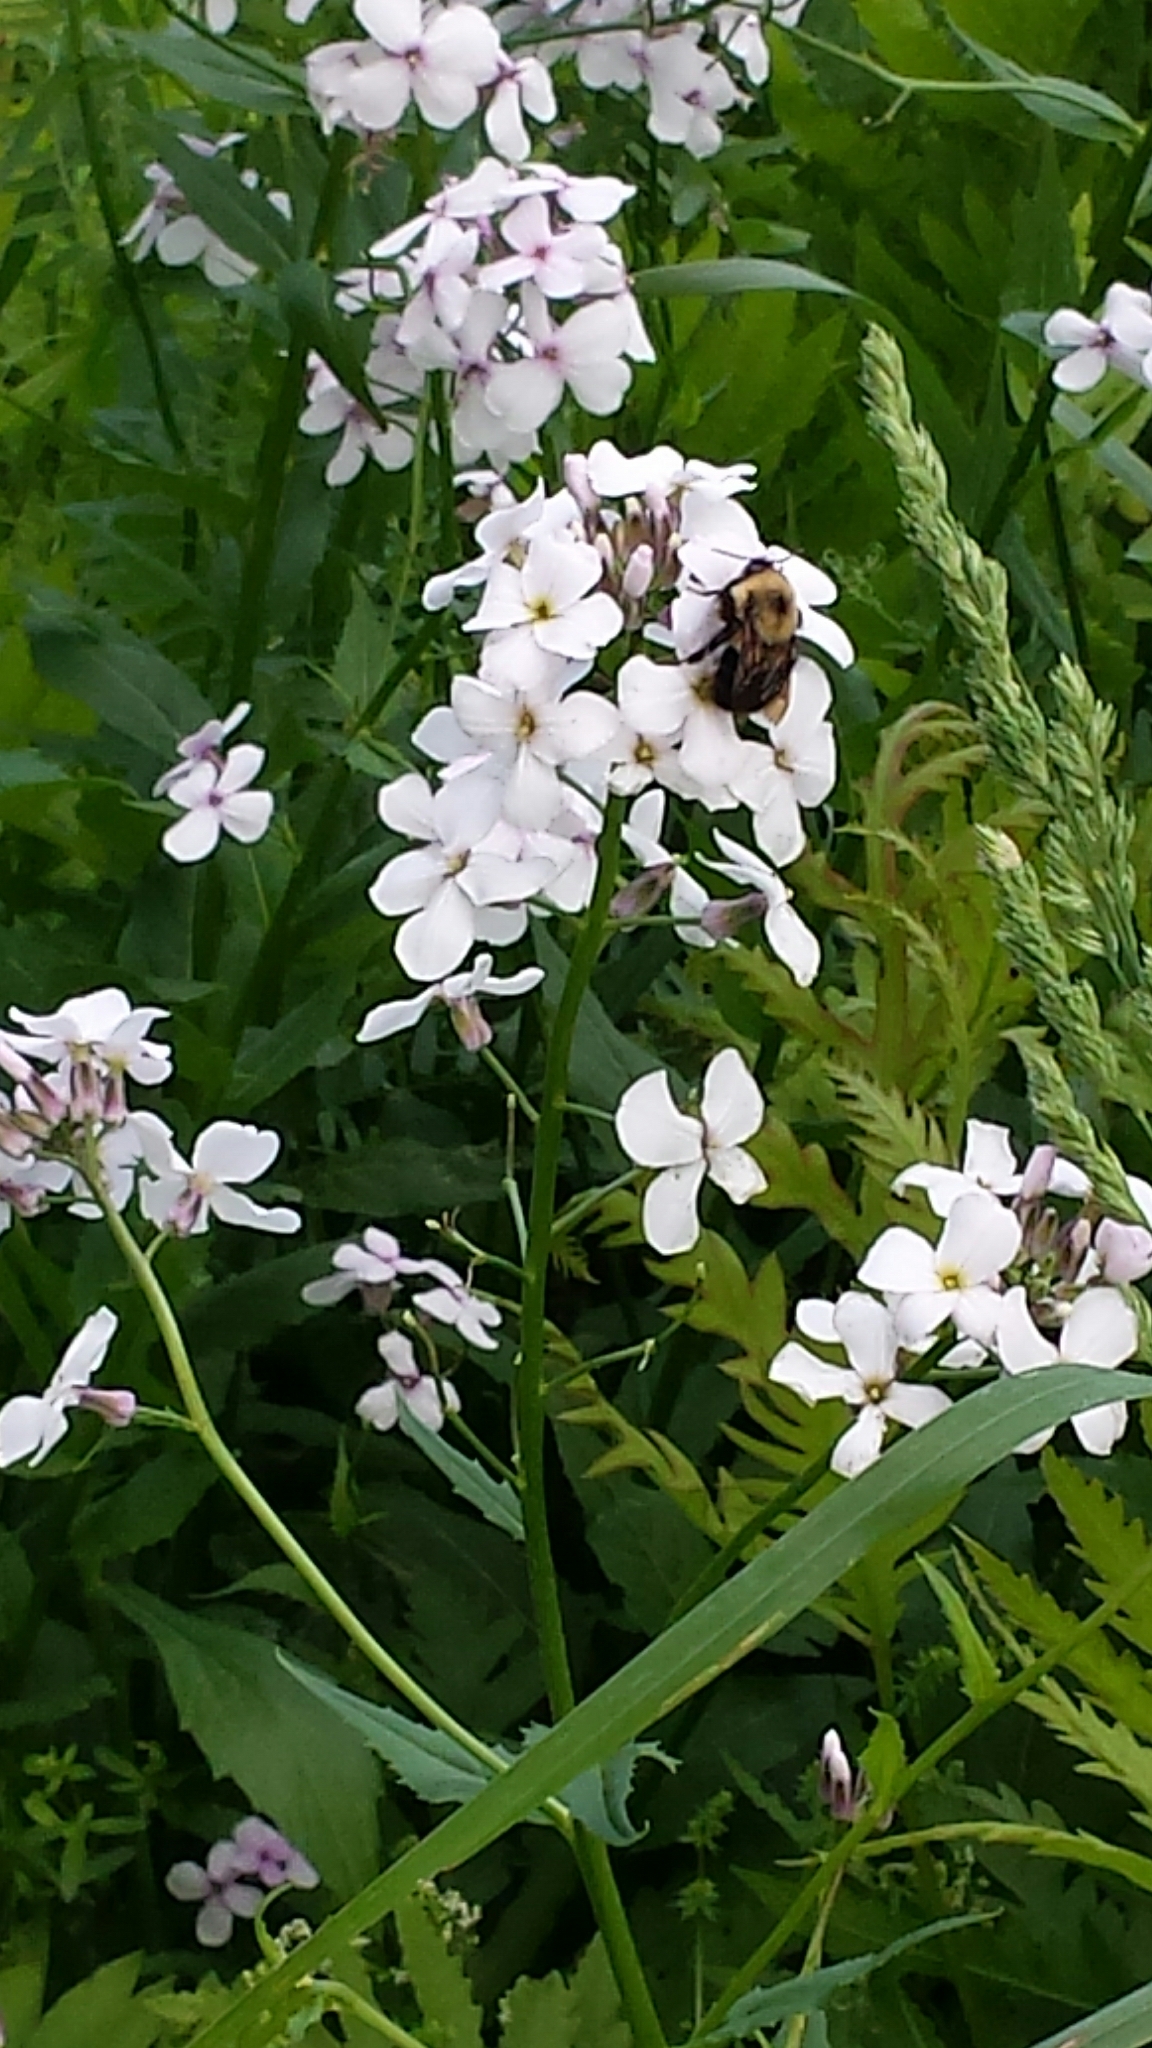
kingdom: Animalia
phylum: Arthropoda
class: Insecta
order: Hymenoptera
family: Apidae
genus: Bombus
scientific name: Bombus bimaculatus
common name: Two-spotted bumble bee
